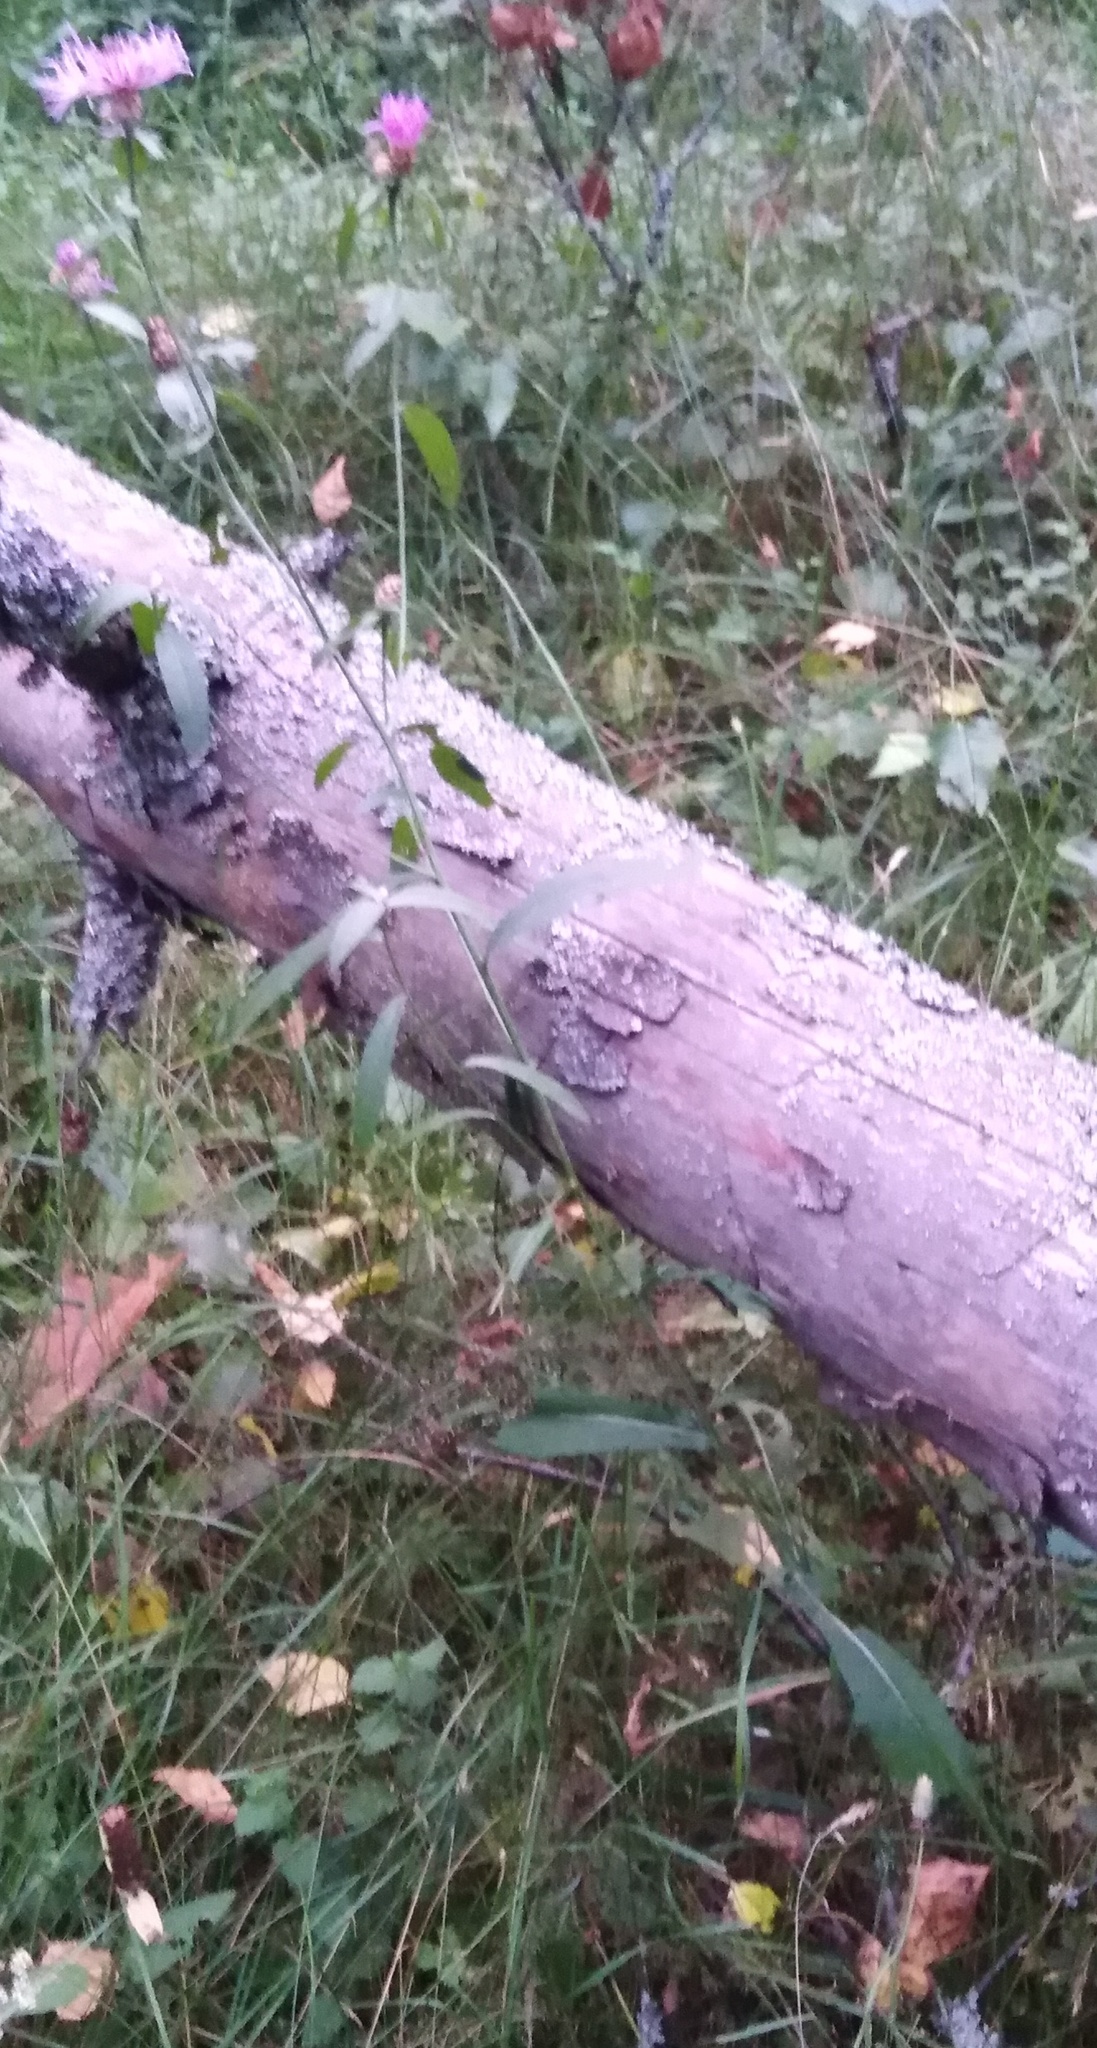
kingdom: Plantae
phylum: Tracheophyta
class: Magnoliopsida
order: Asterales
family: Asteraceae
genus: Centaurea
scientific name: Centaurea jacea
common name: Brown knapweed
